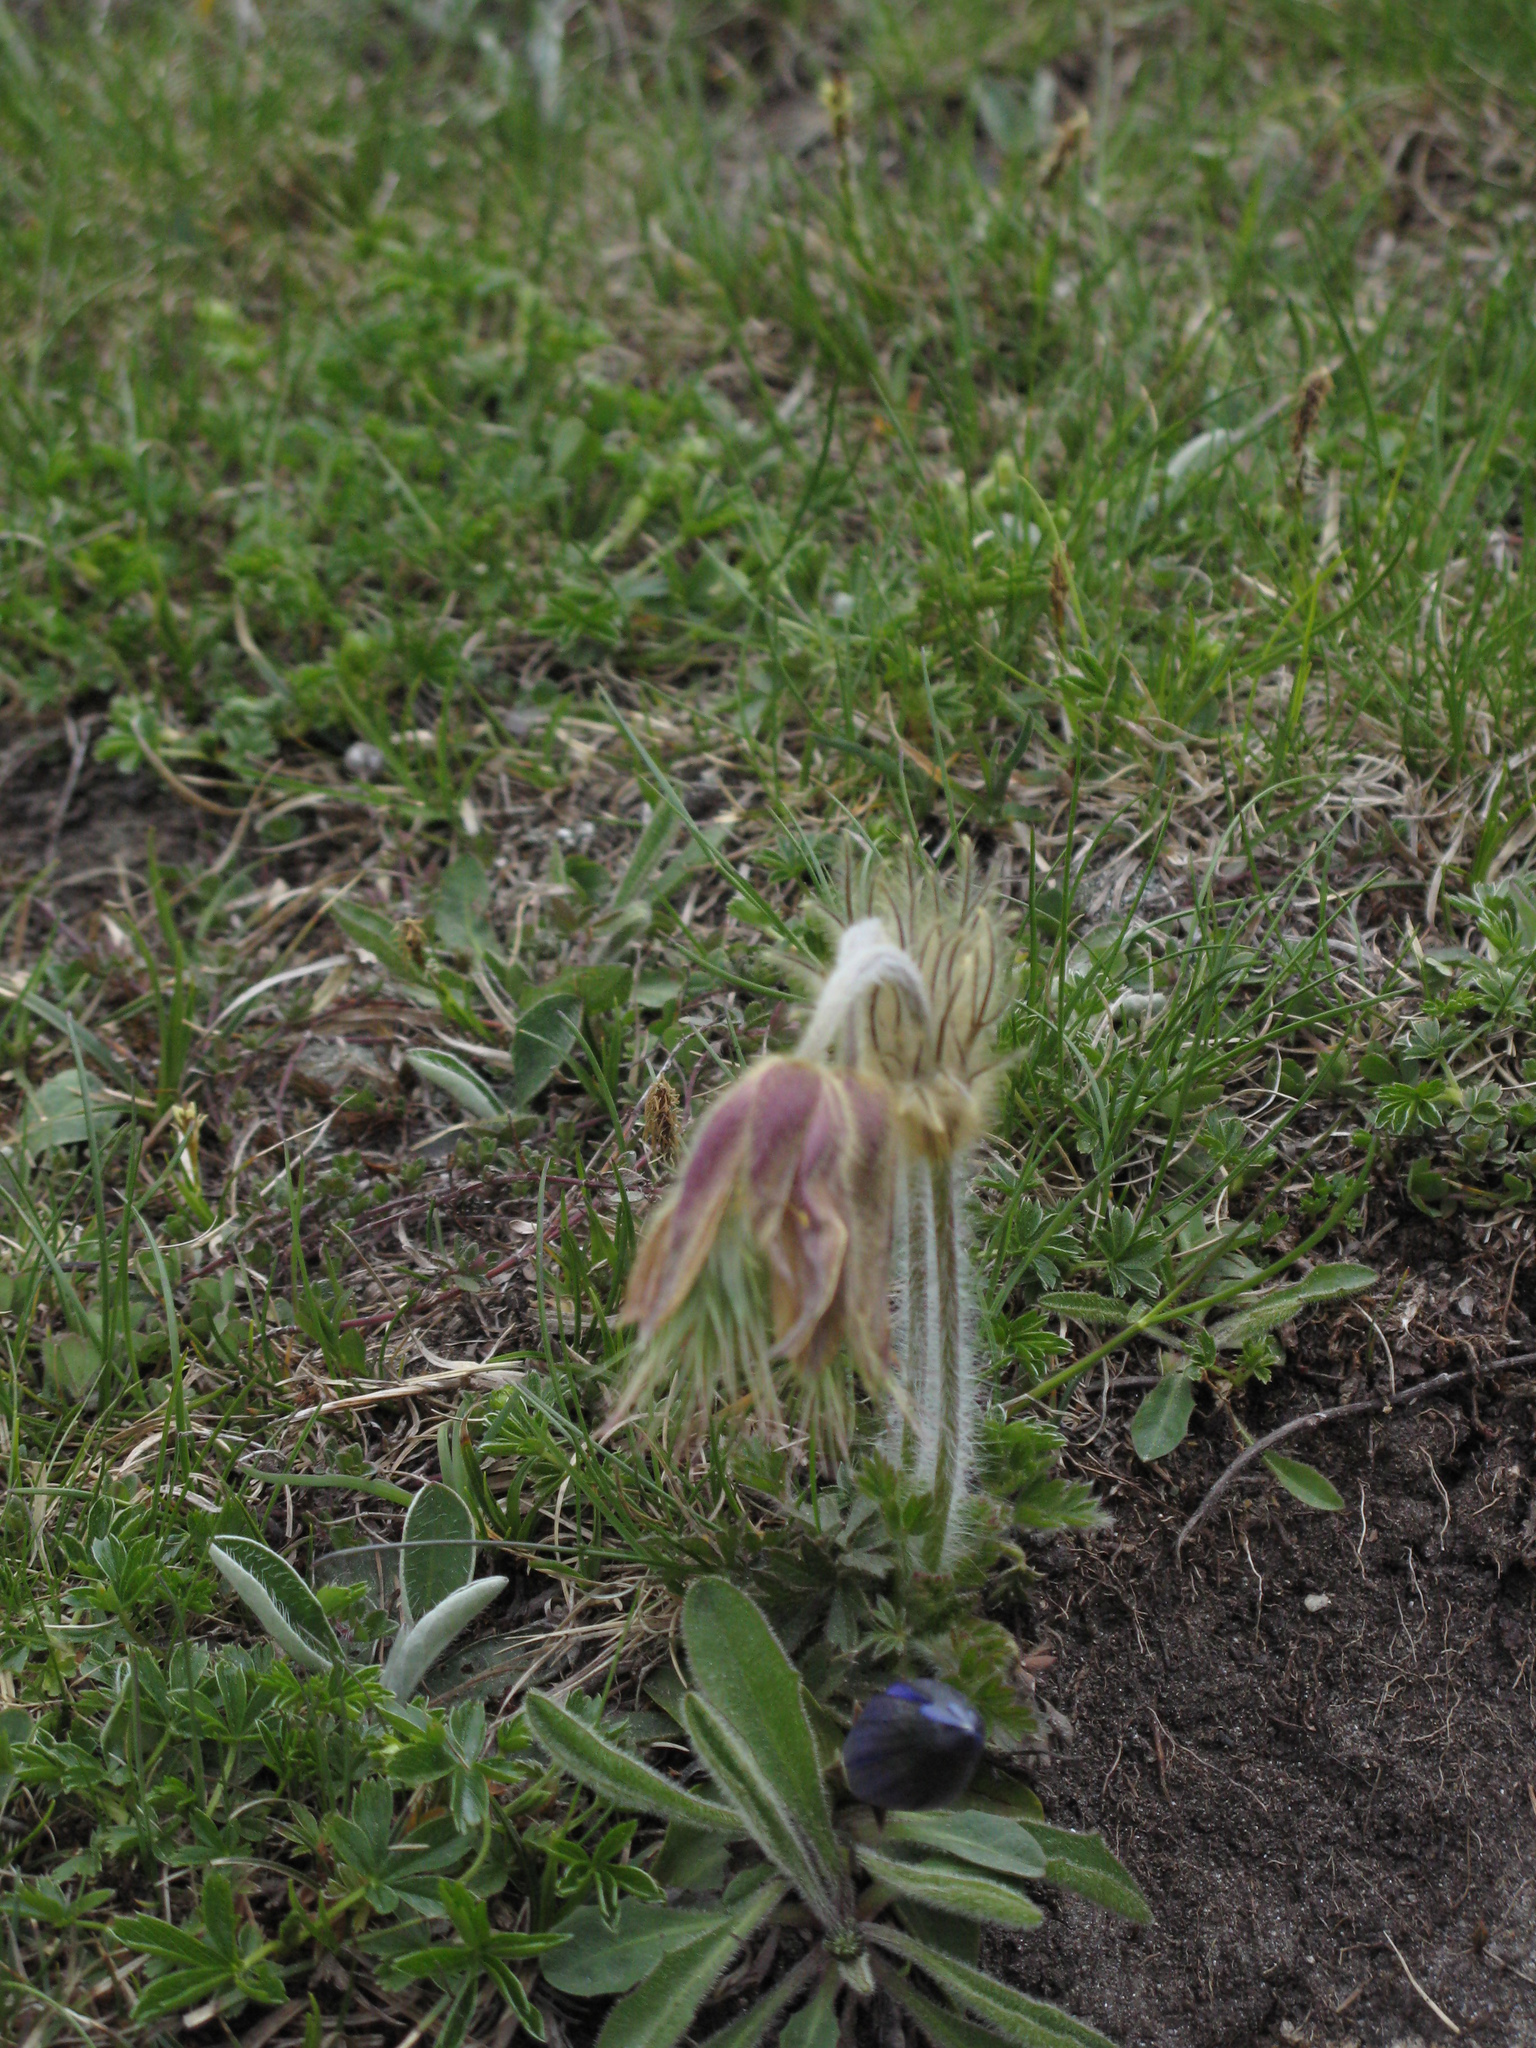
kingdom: Plantae
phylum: Tracheophyta
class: Magnoliopsida
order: Ranunculales
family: Ranunculaceae
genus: Pulsatilla
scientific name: Pulsatilla vernalis
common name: Spring pasque flower
